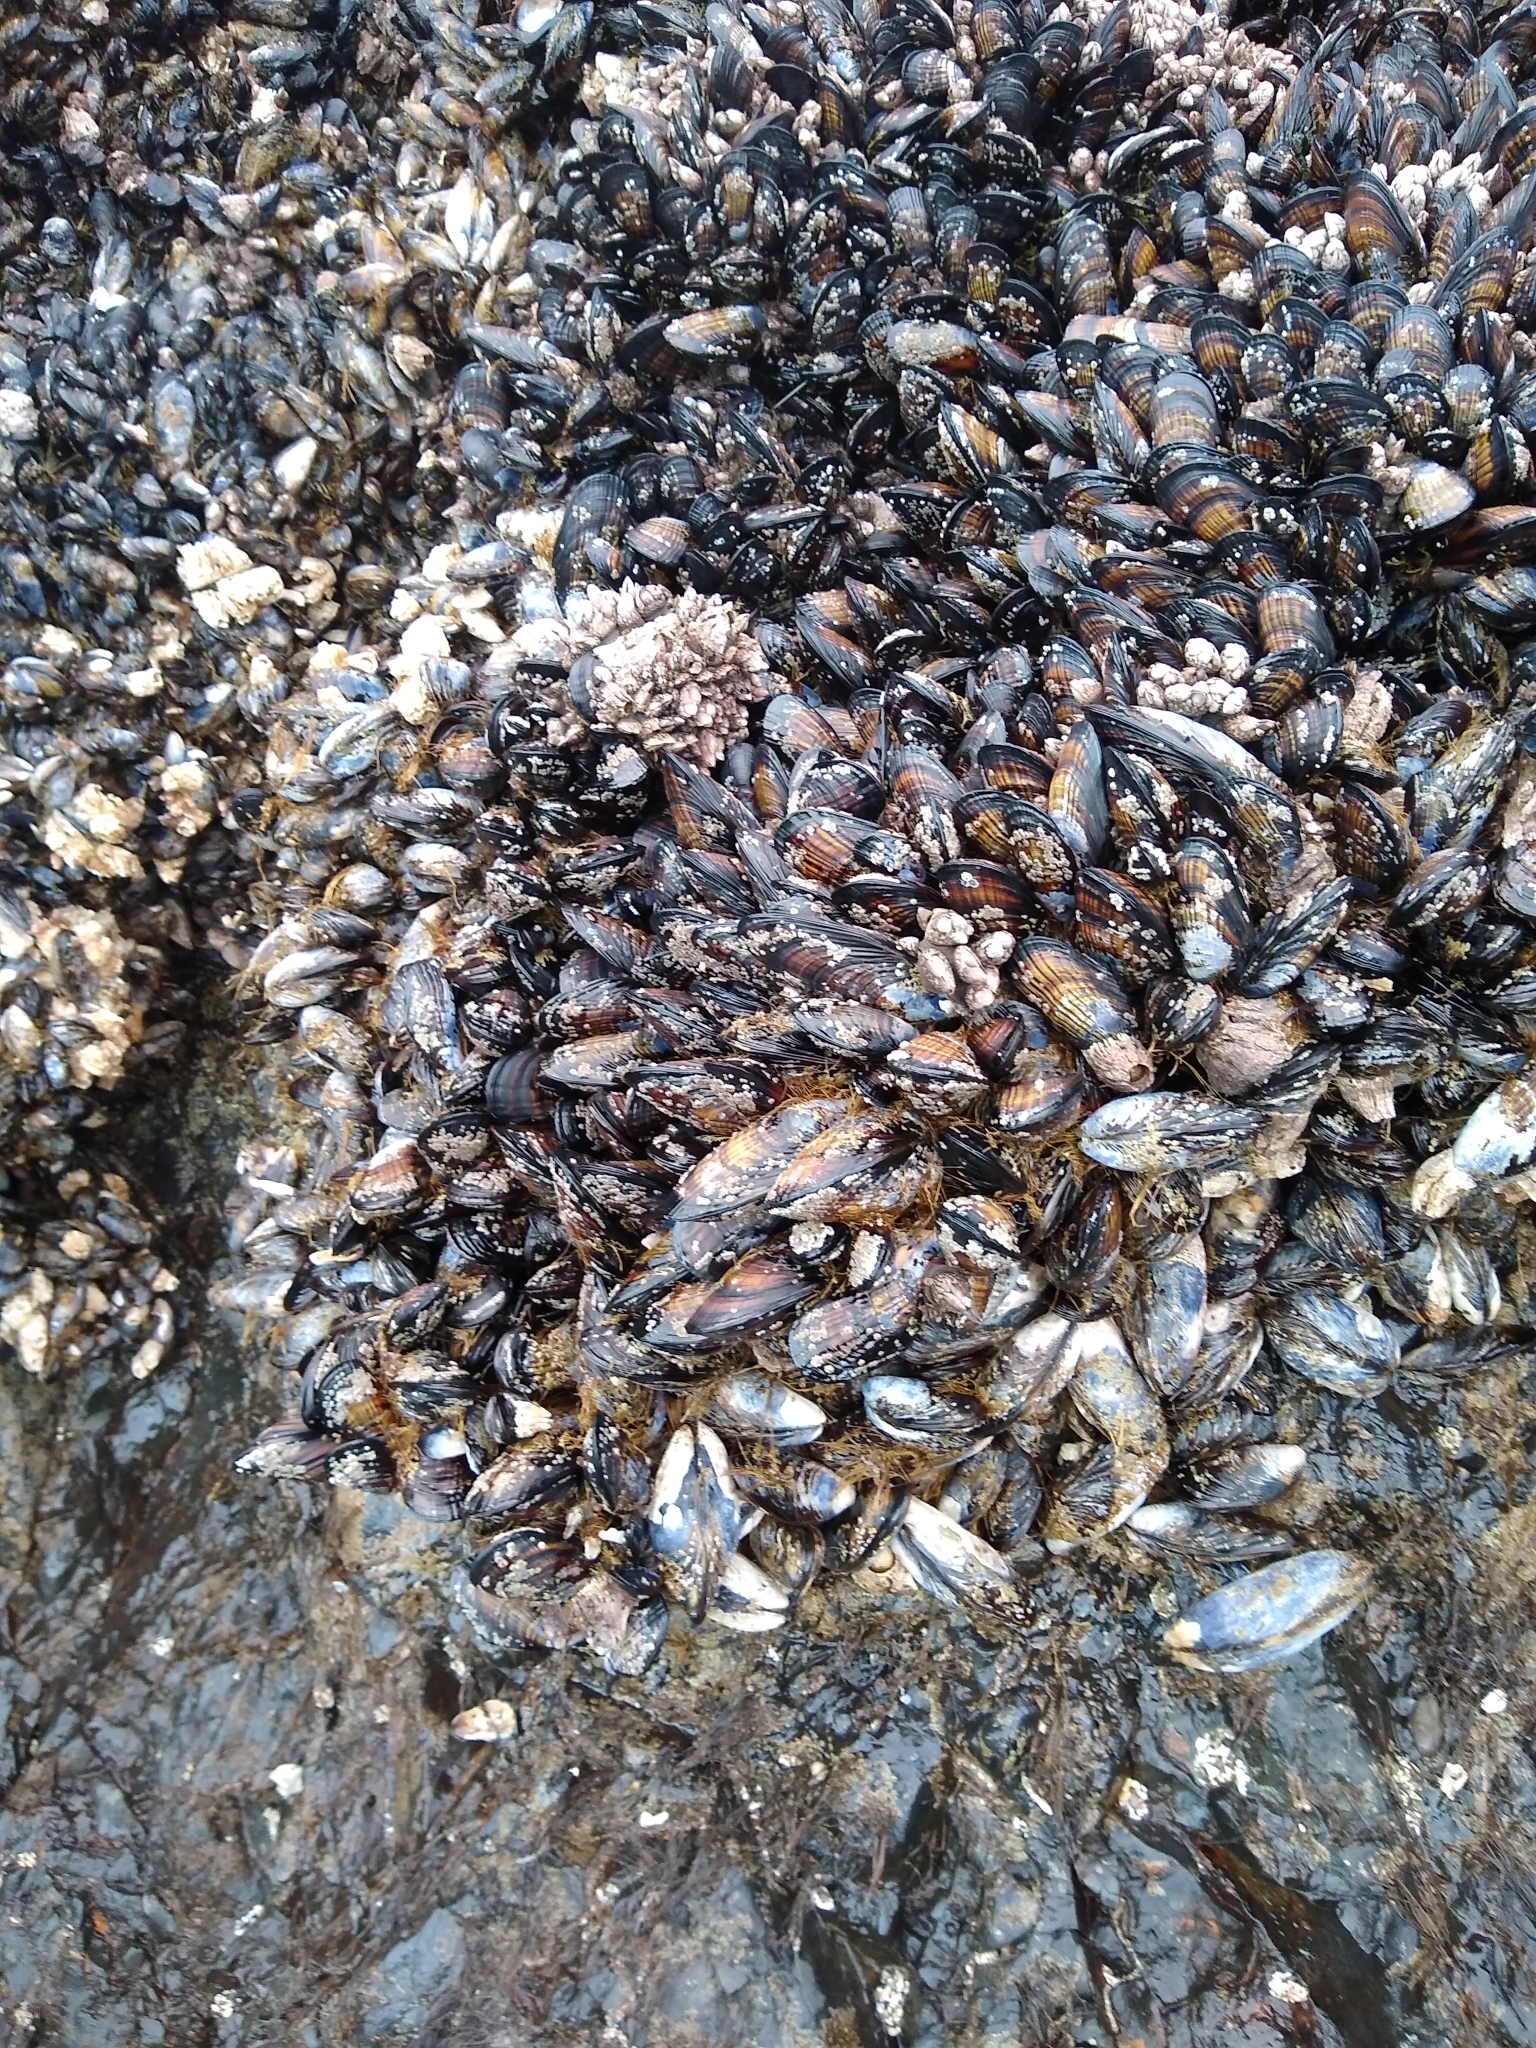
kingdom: Animalia
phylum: Mollusca
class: Bivalvia
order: Mytilida
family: Mytilidae
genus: Mytilus
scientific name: Mytilus californianus
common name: California mussel
